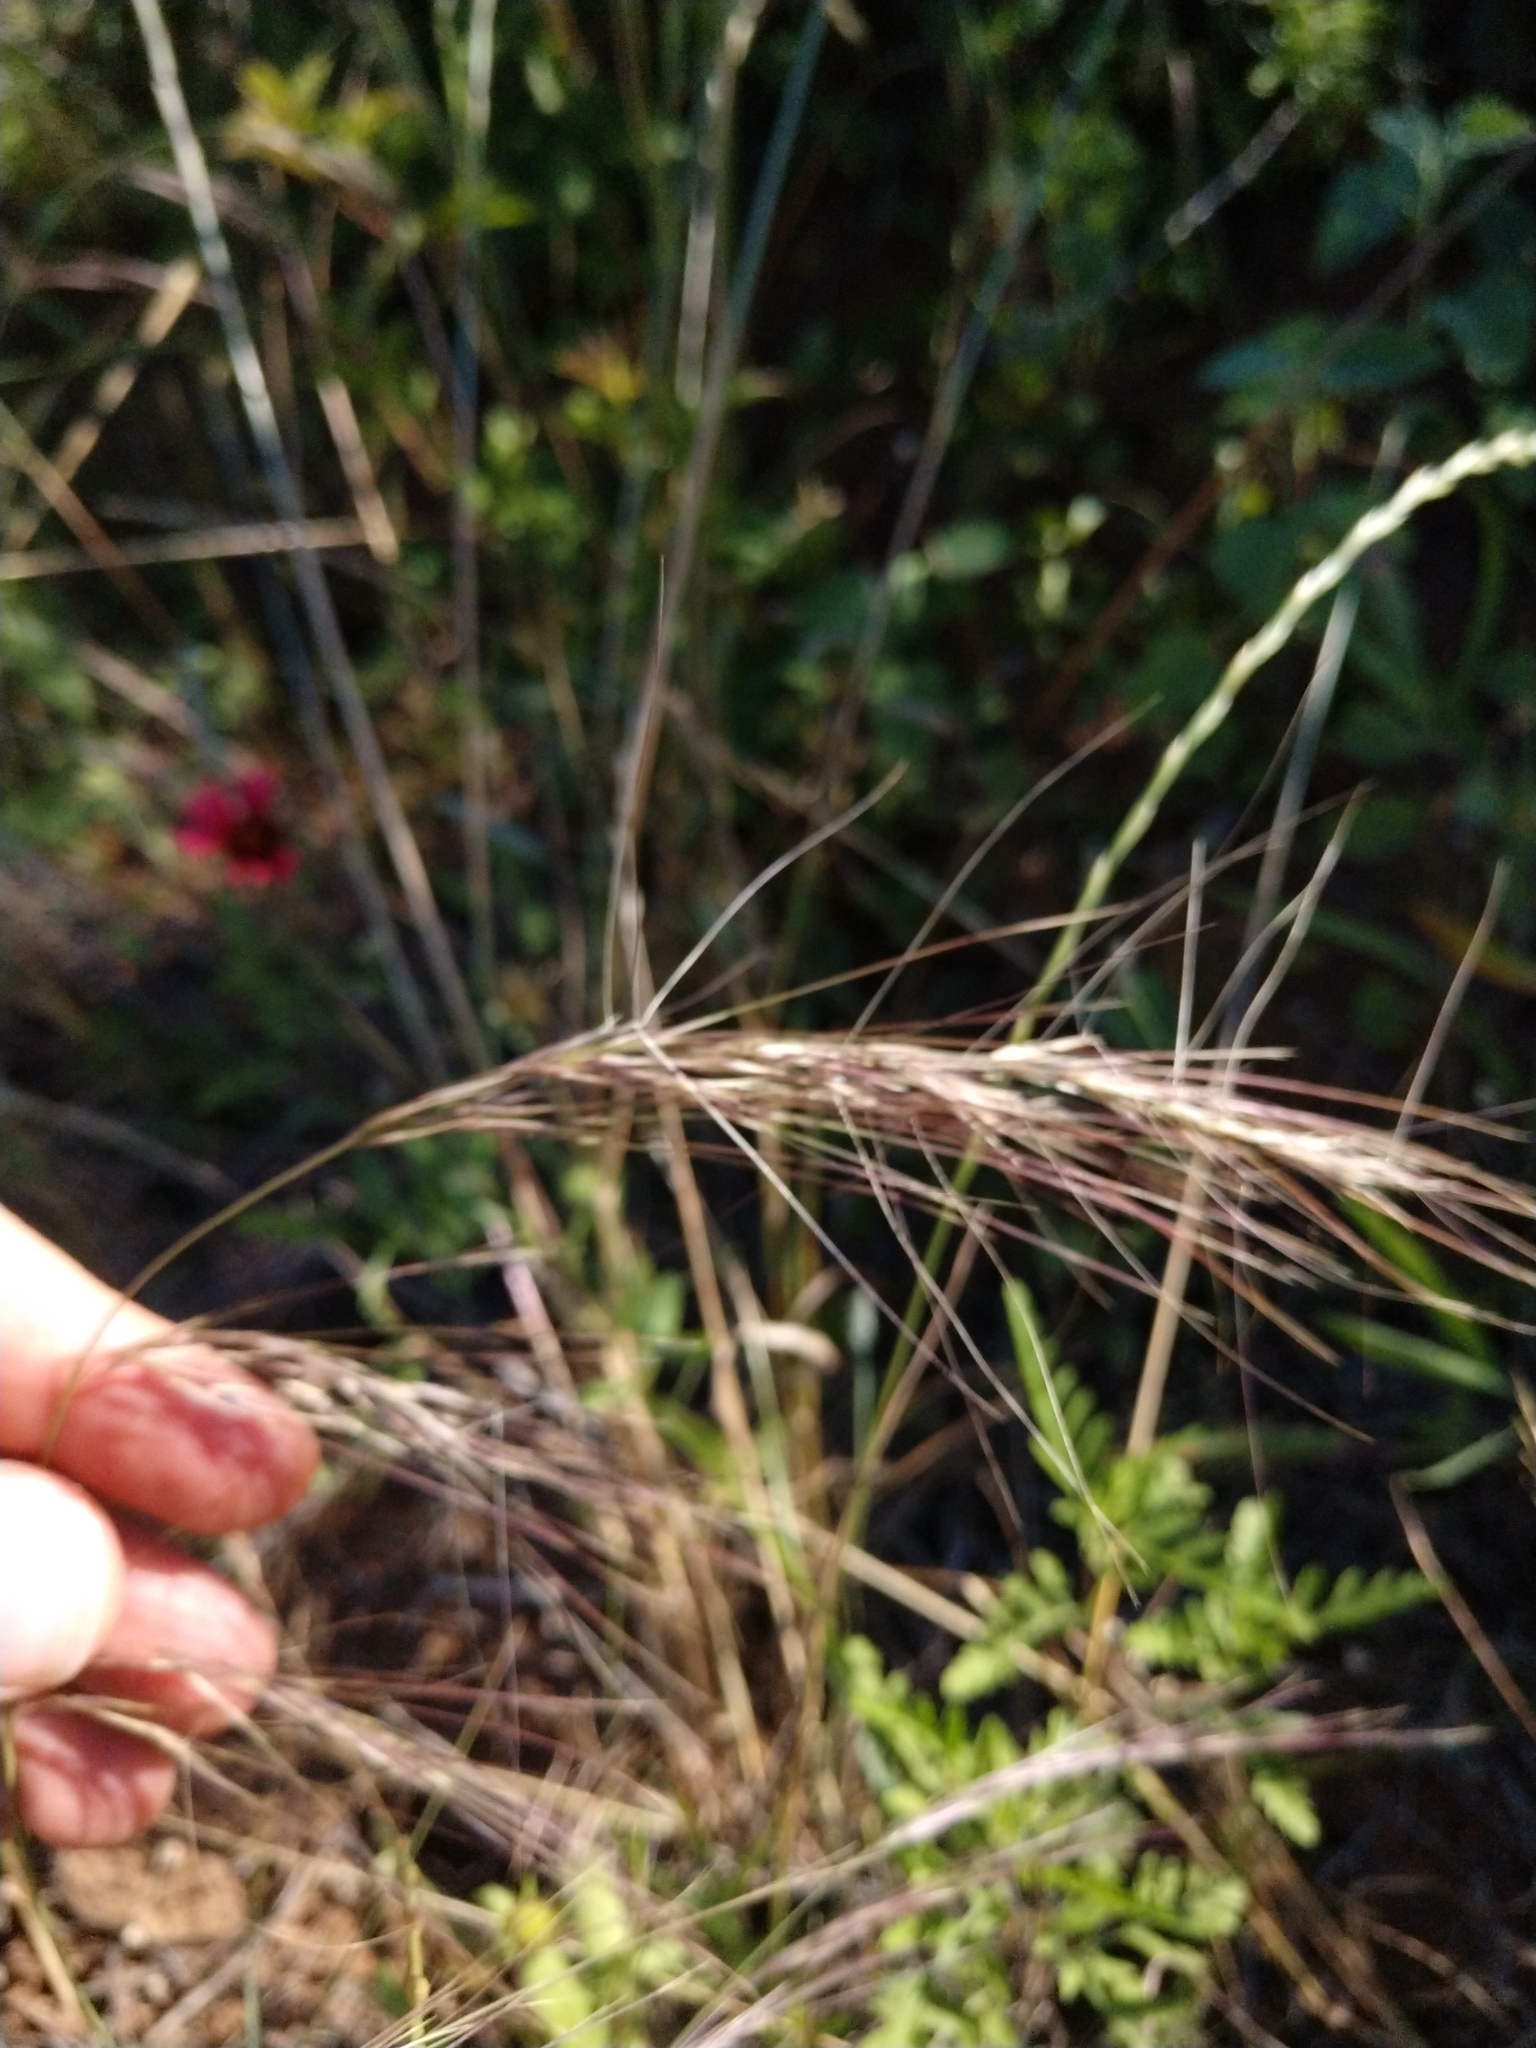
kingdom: Plantae
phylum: Tracheophyta
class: Liliopsida
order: Poales
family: Poaceae
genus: Aristida
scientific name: Aristida purpurea
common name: Purple threeawn
